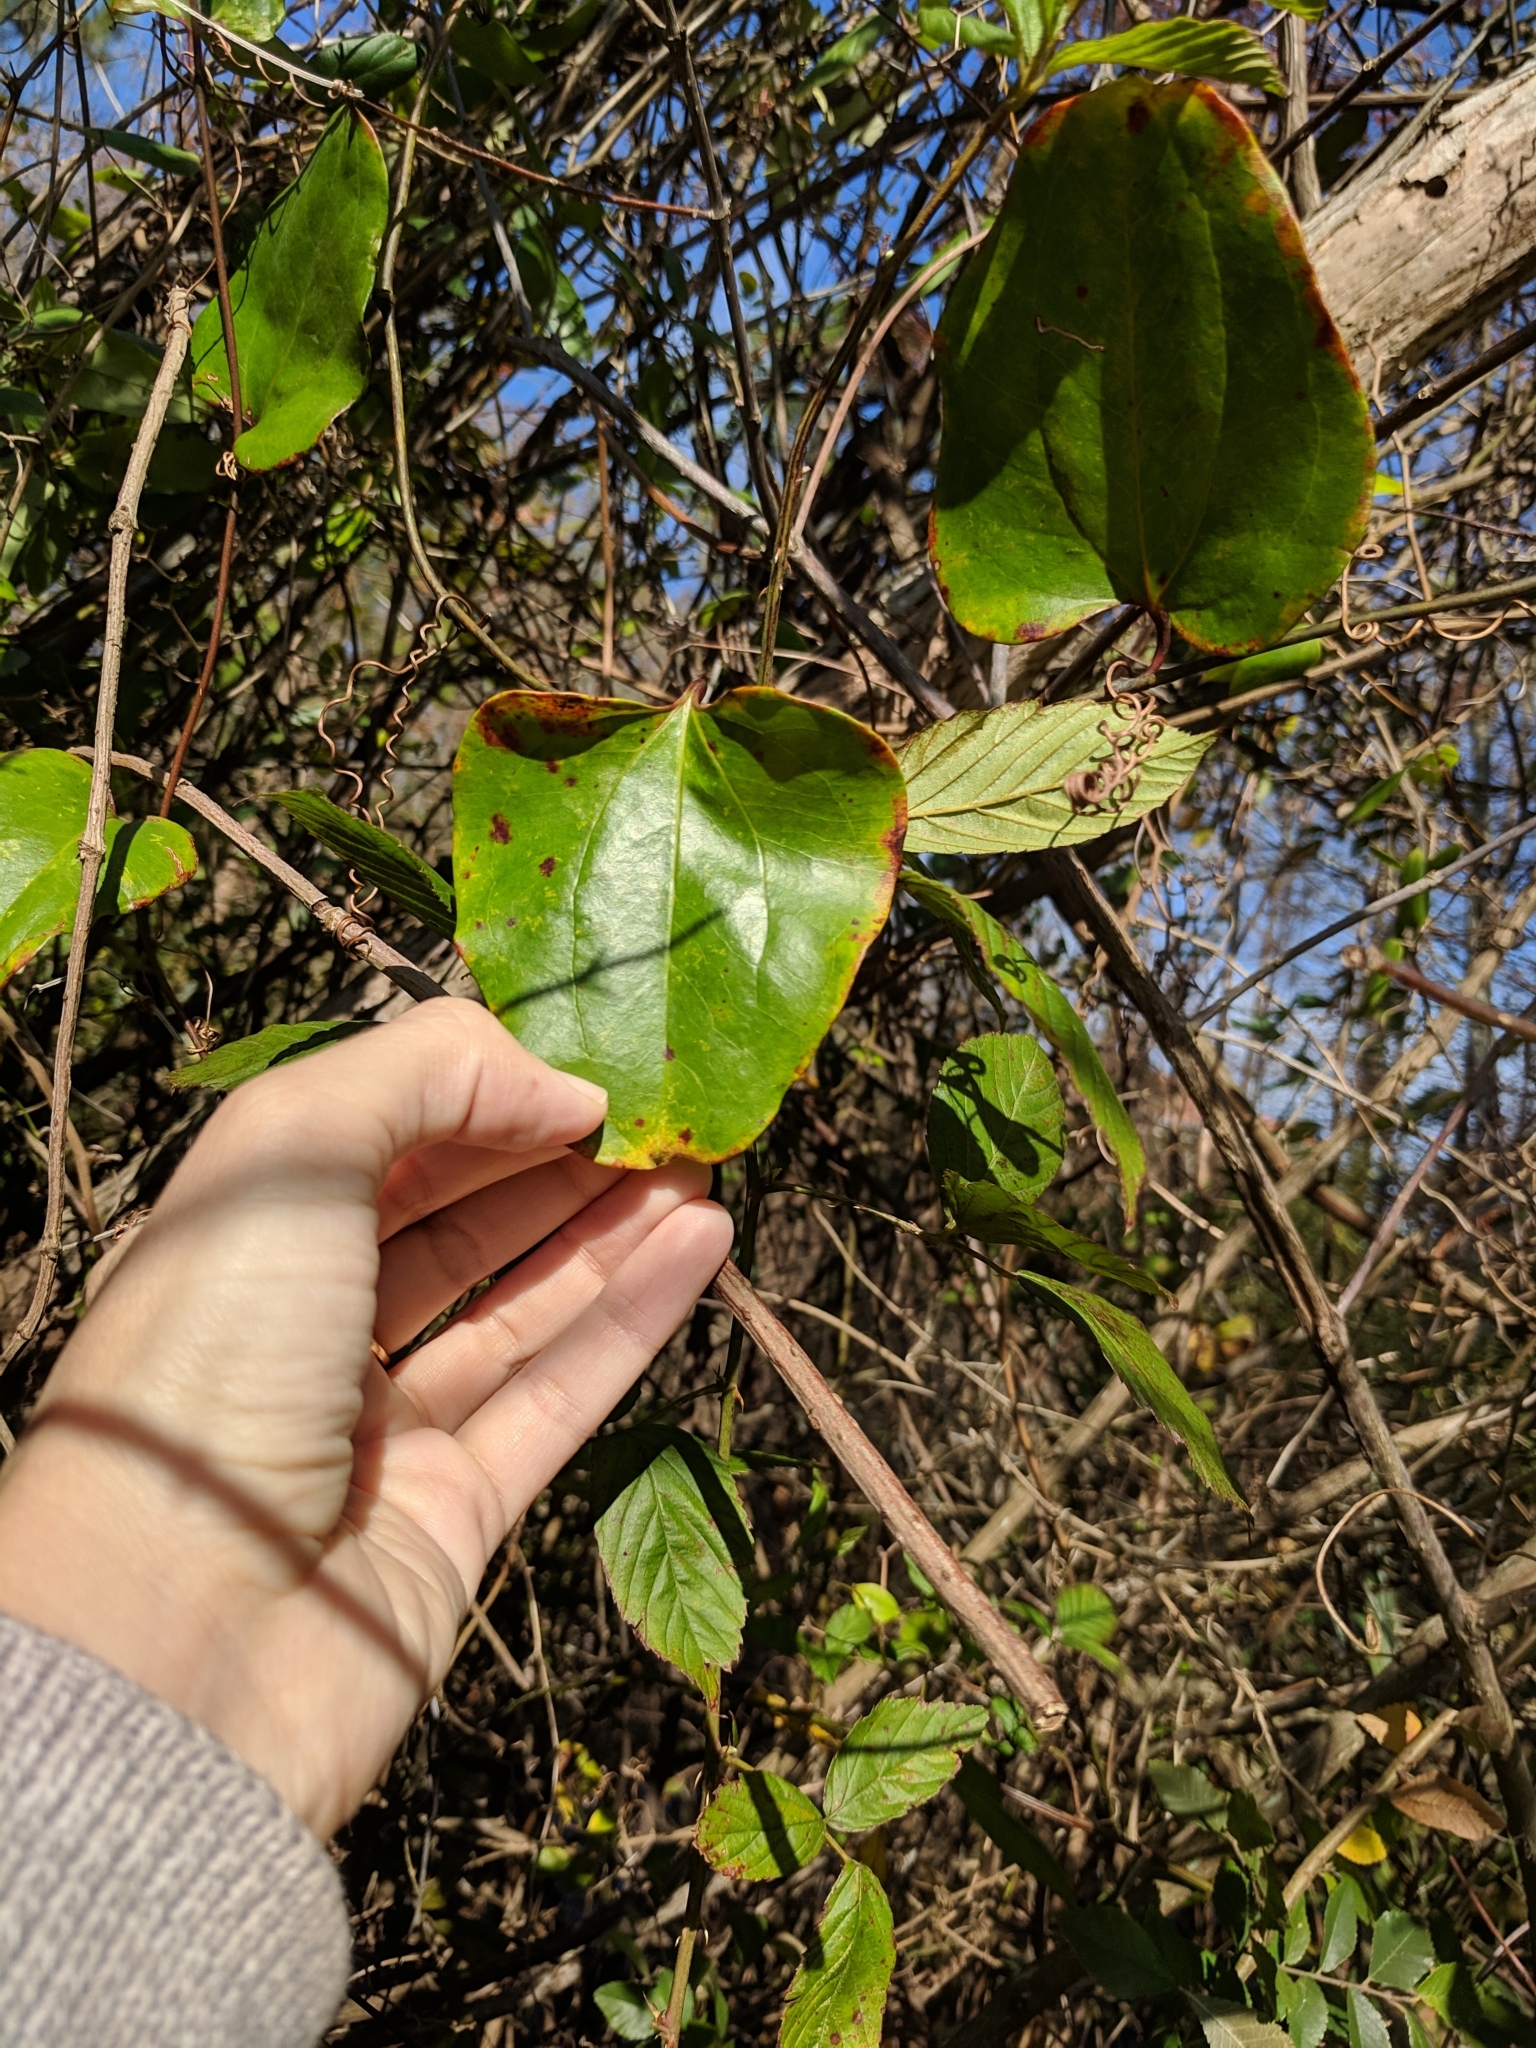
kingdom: Plantae
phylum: Tracheophyta
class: Liliopsida
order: Liliales
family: Smilacaceae
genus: Smilax
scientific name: Smilax glauca
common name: Cat greenbrier
